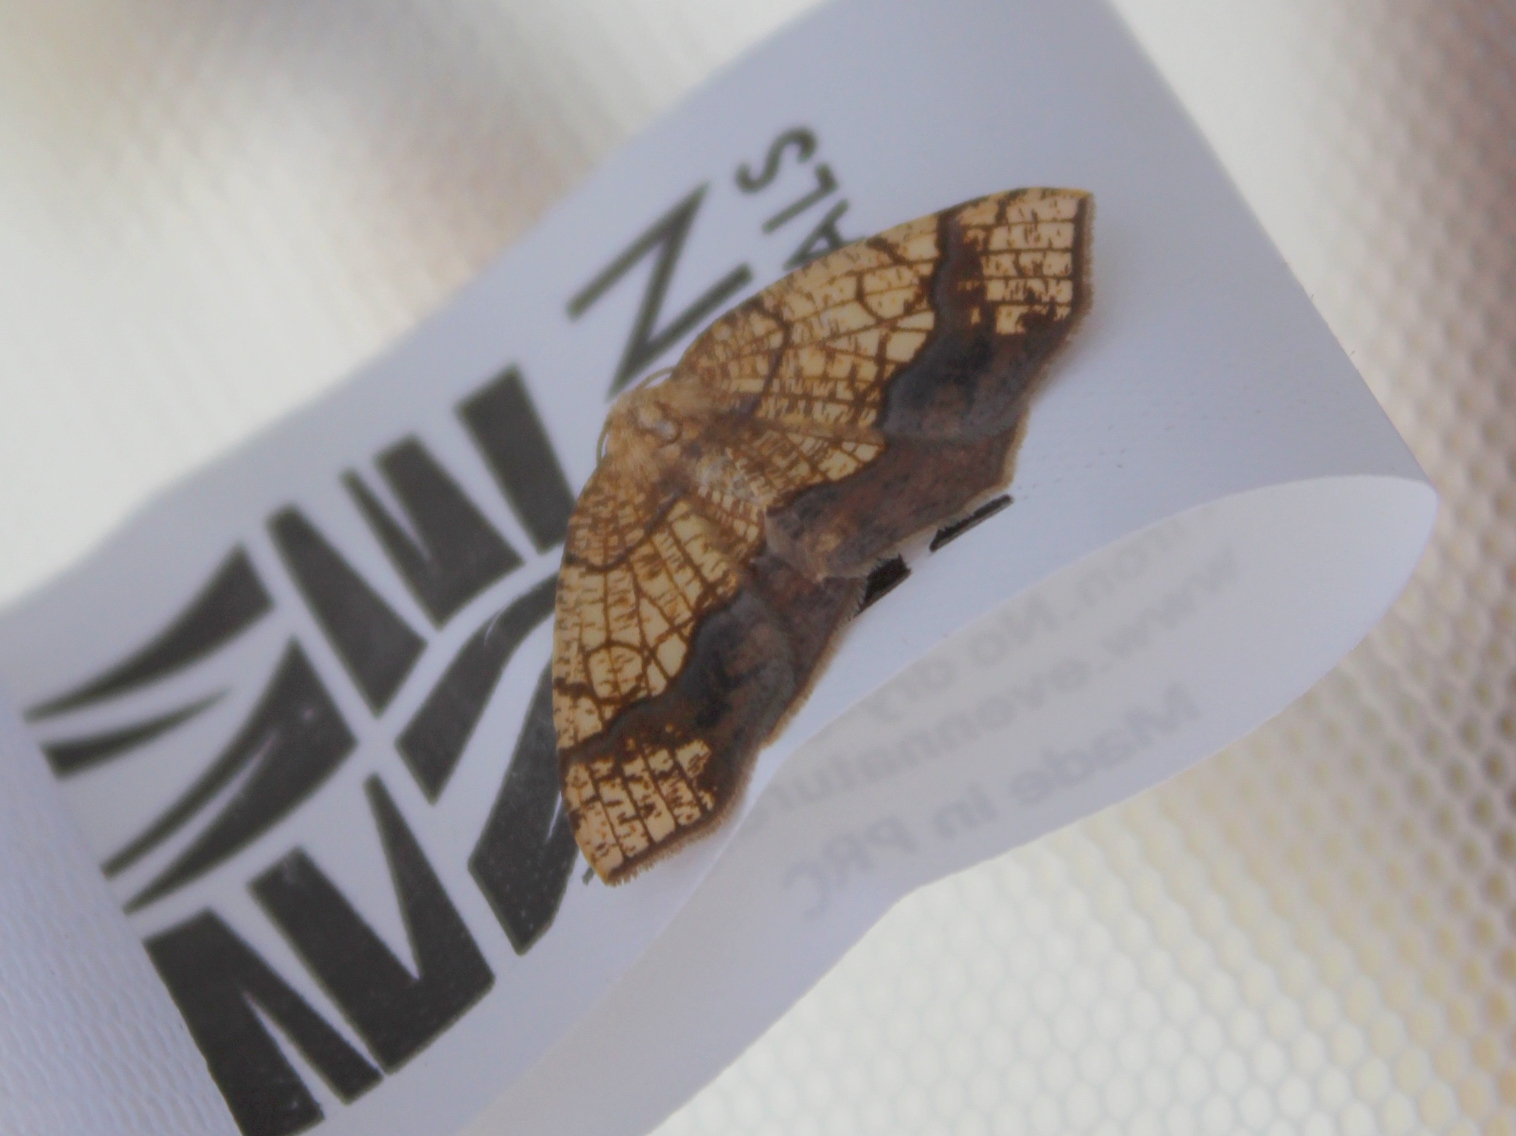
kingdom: Animalia
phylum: Arthropoda
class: Insecta
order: Lepidoptera
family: Geometridae
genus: Nematocampa
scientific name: Nematocampa resistaria
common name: Horned spanworm moth
